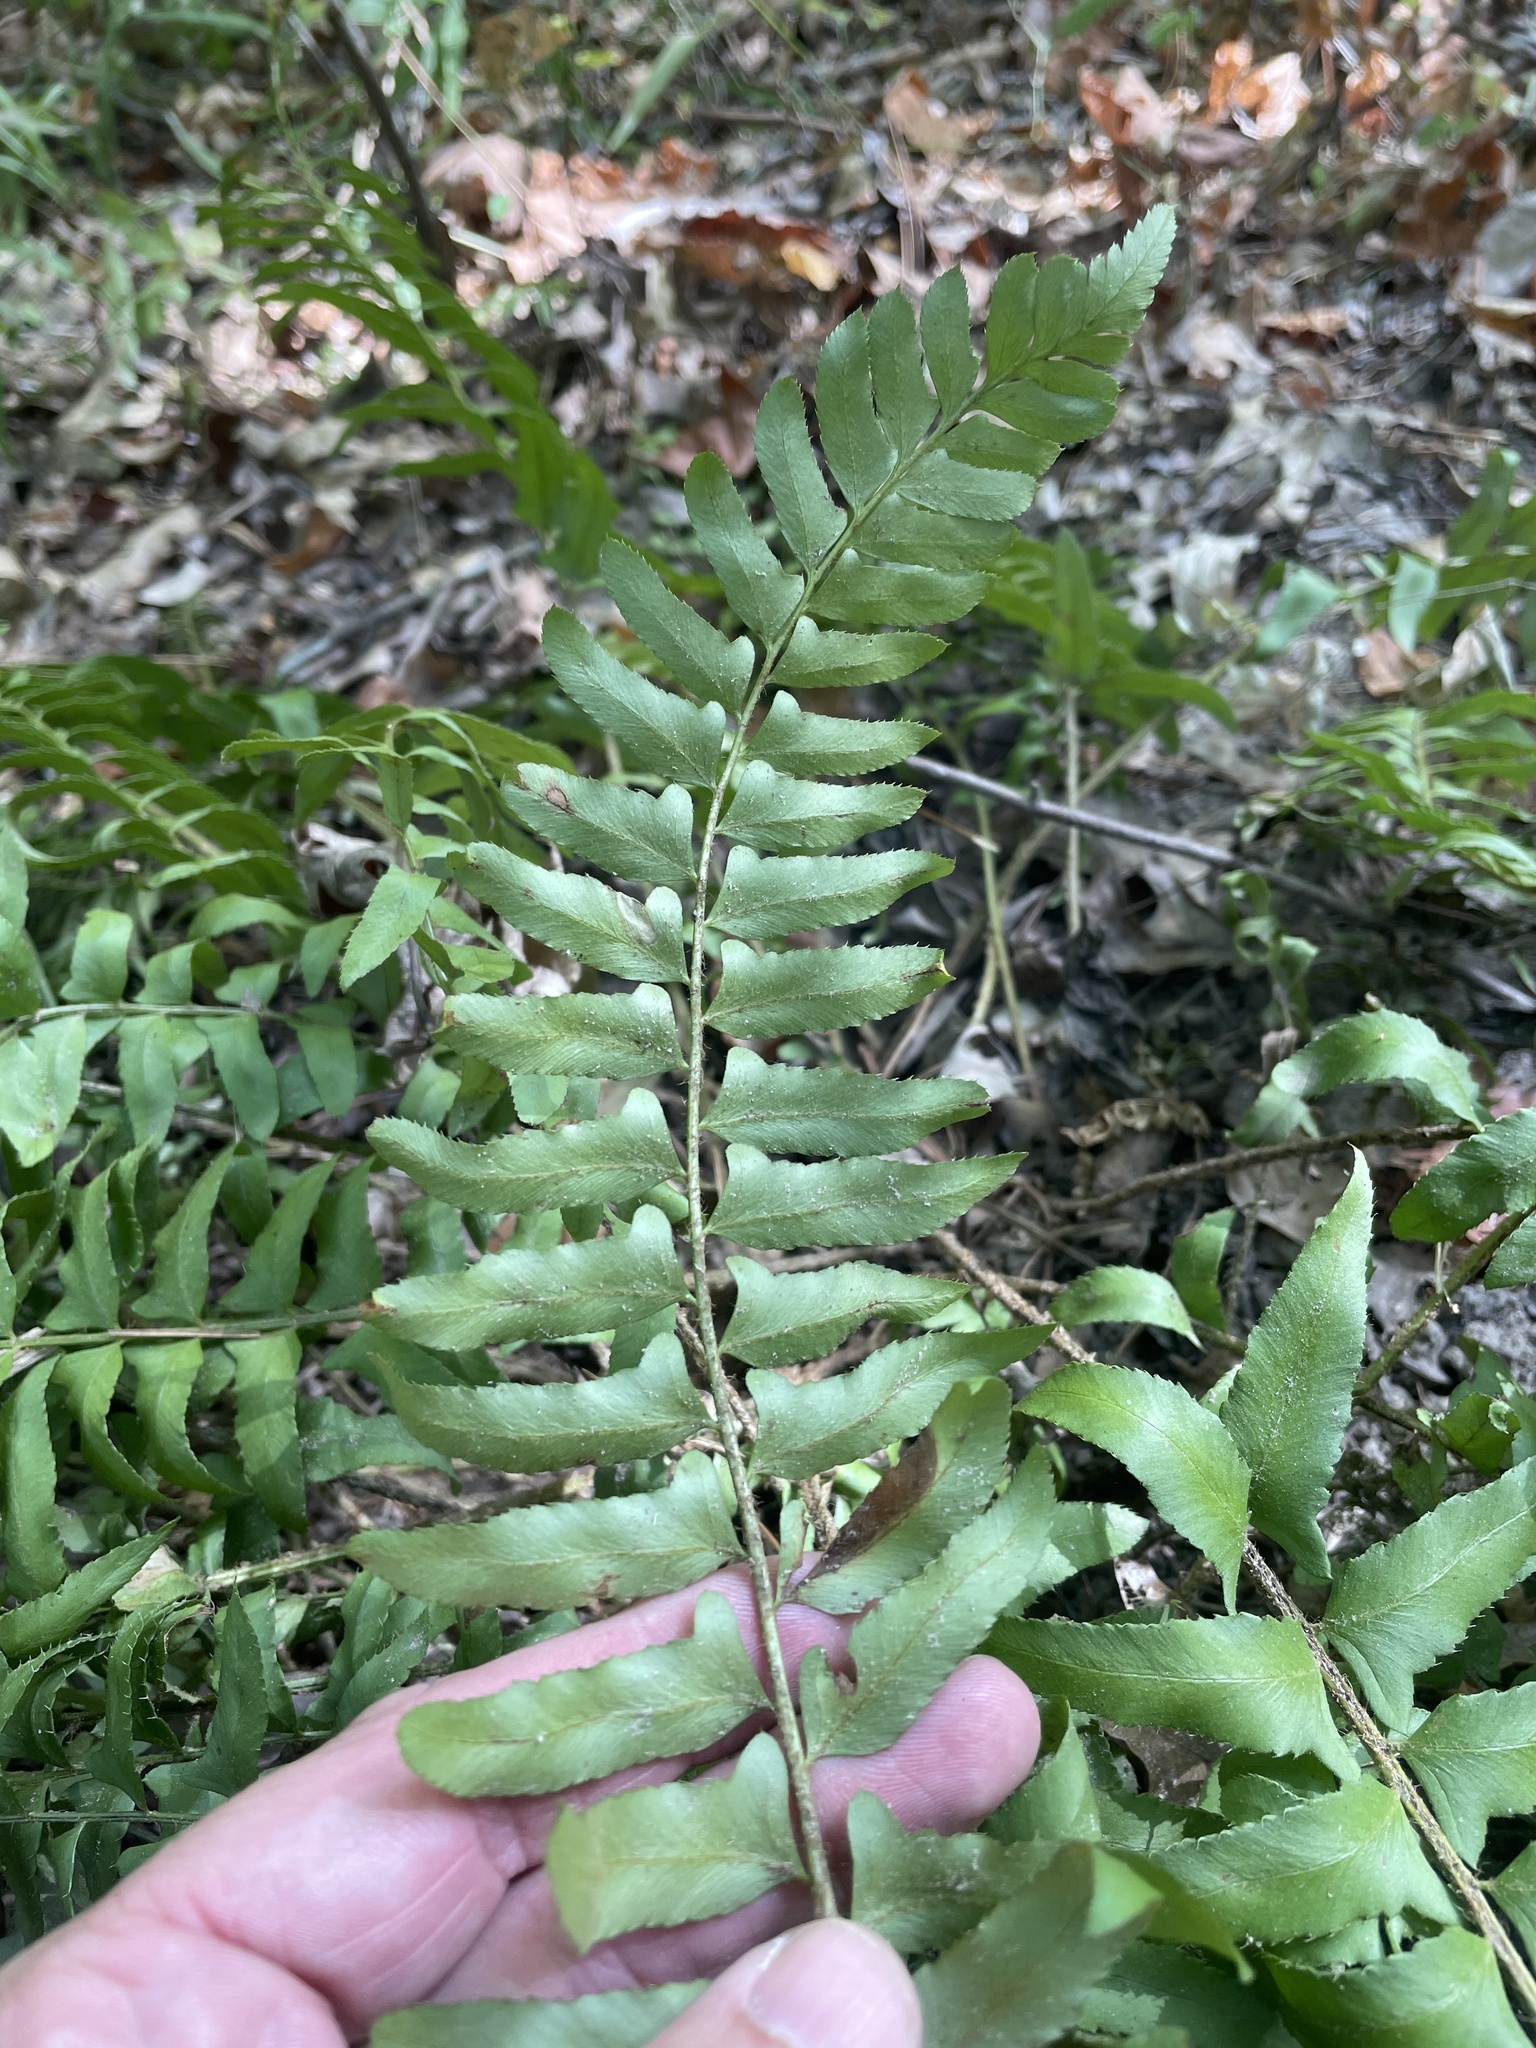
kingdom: Plantae
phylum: Tracheophyta
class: Polypodiopsida
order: Polypodiales
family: Dryopteridaceae
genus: Polystichum
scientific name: Polystichum acrostichoides
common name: Christmas fern
